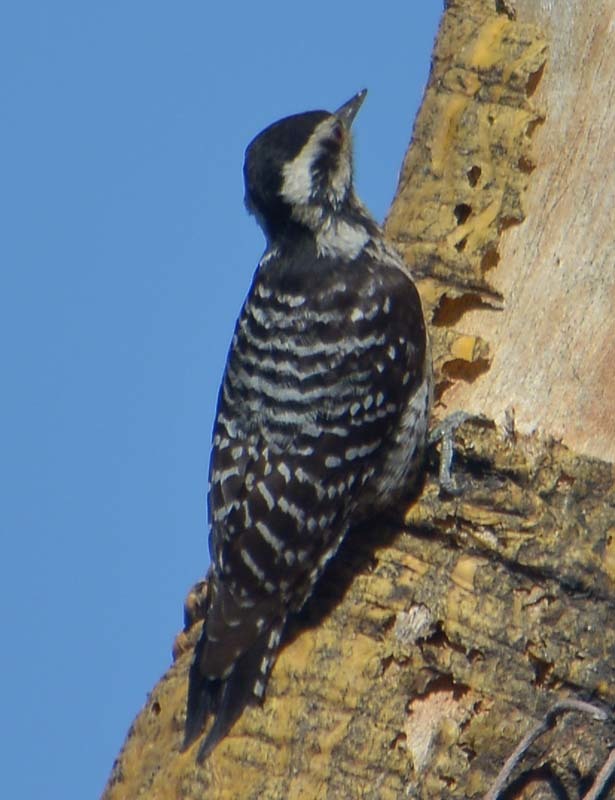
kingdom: Animalia
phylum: Chordata
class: Aves
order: Piciformes
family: Picidae
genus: Dryobates
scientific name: Dryobates scalaris
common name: Ladder-backed woodpecker
